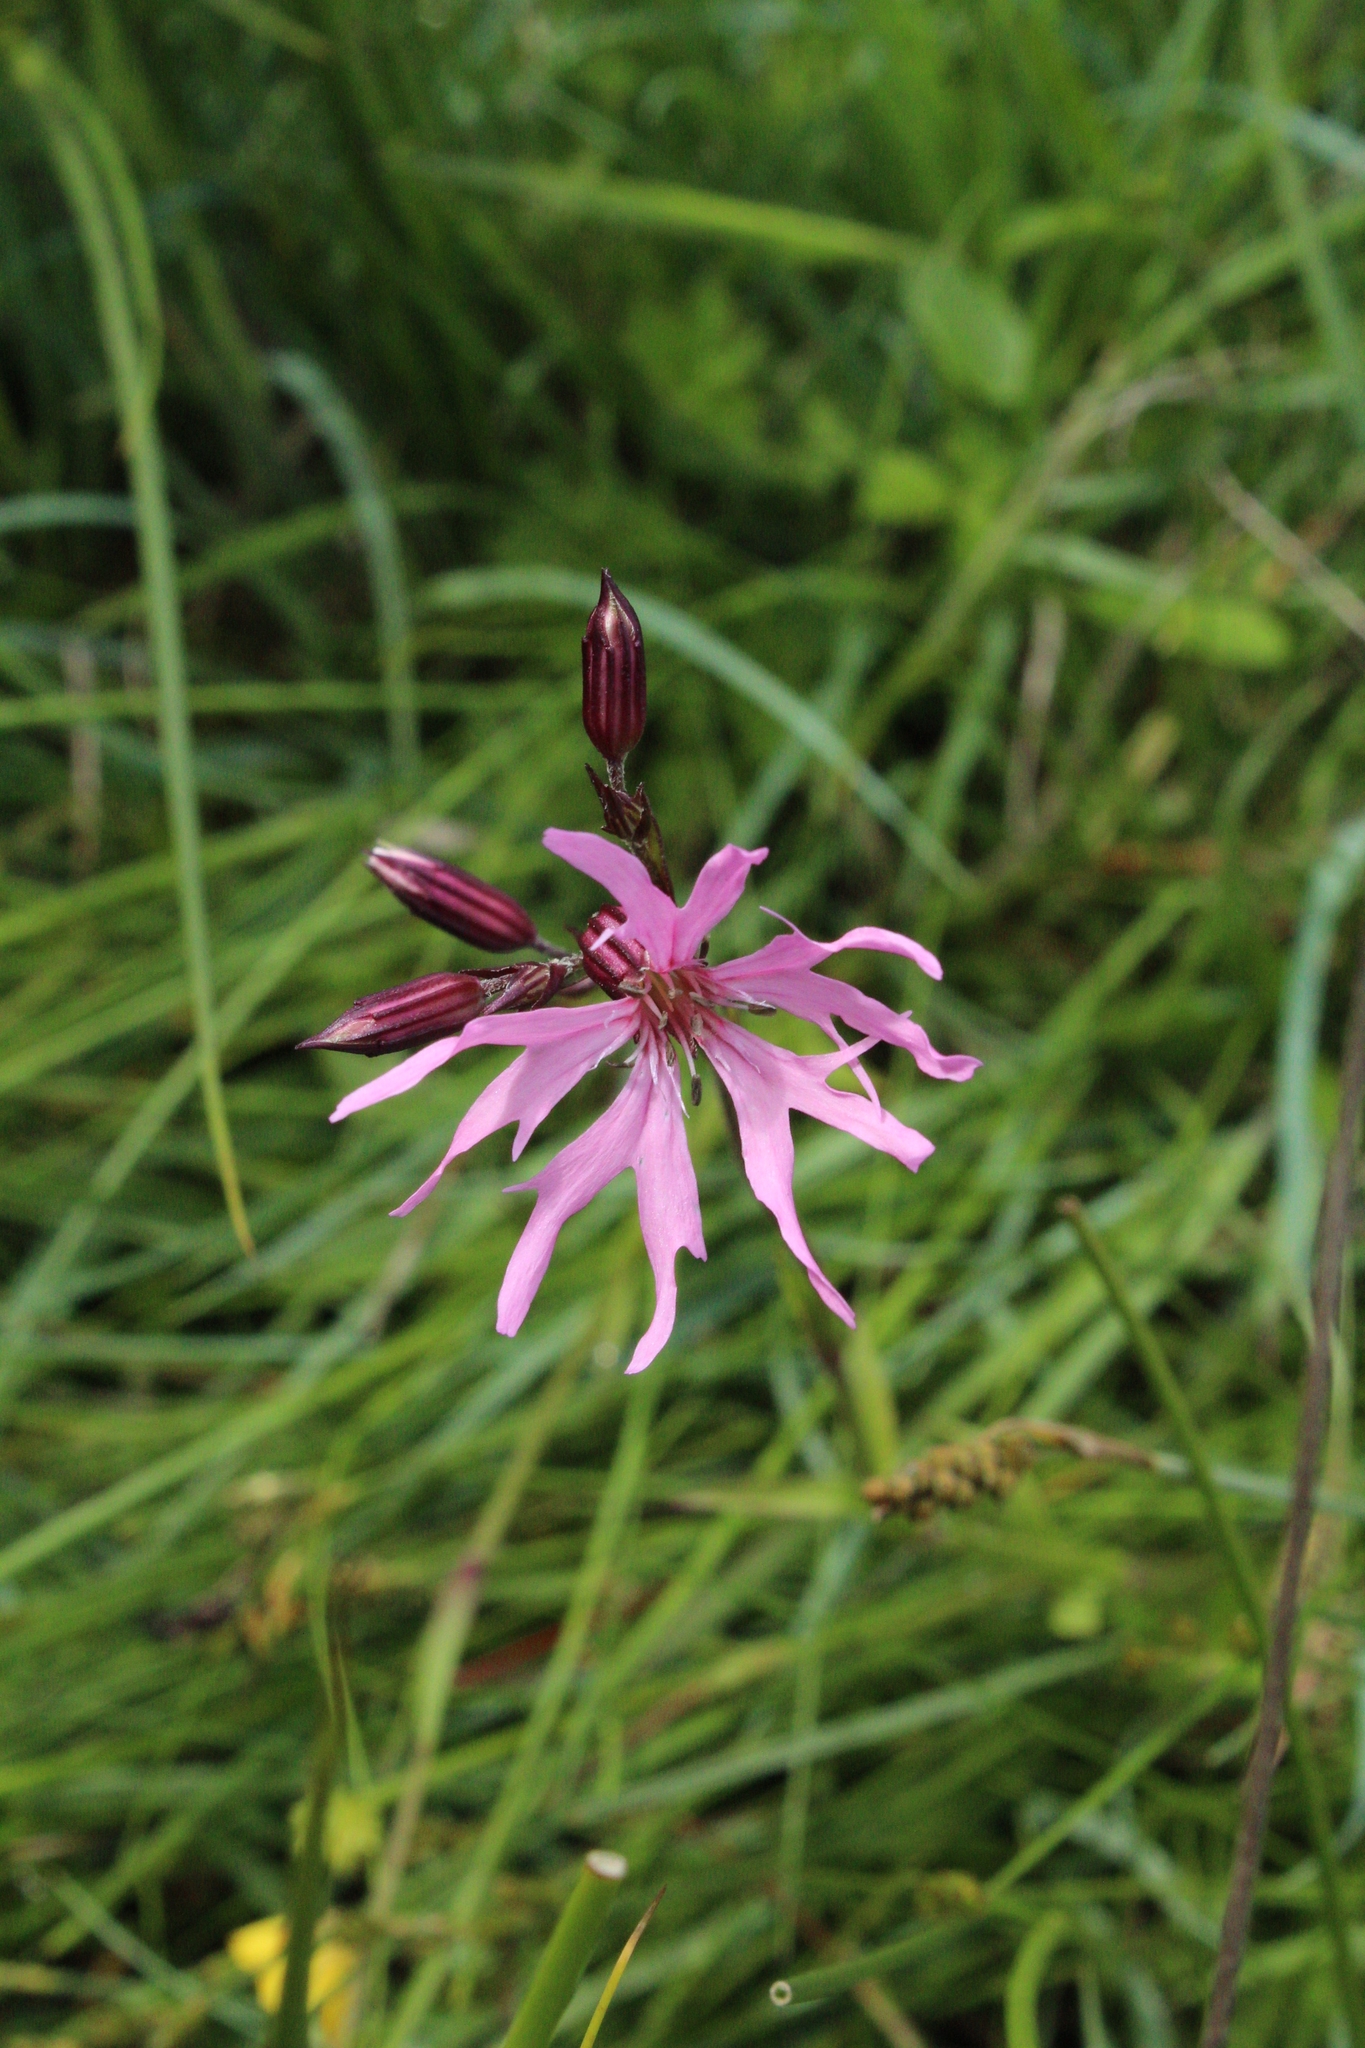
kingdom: Plantae
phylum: Tracheophyta
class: Magnoliopsida
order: Caryophyllales
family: Caryophyllaceae
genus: Silene
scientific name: Silene flos-cuculi
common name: Ragged-robin
